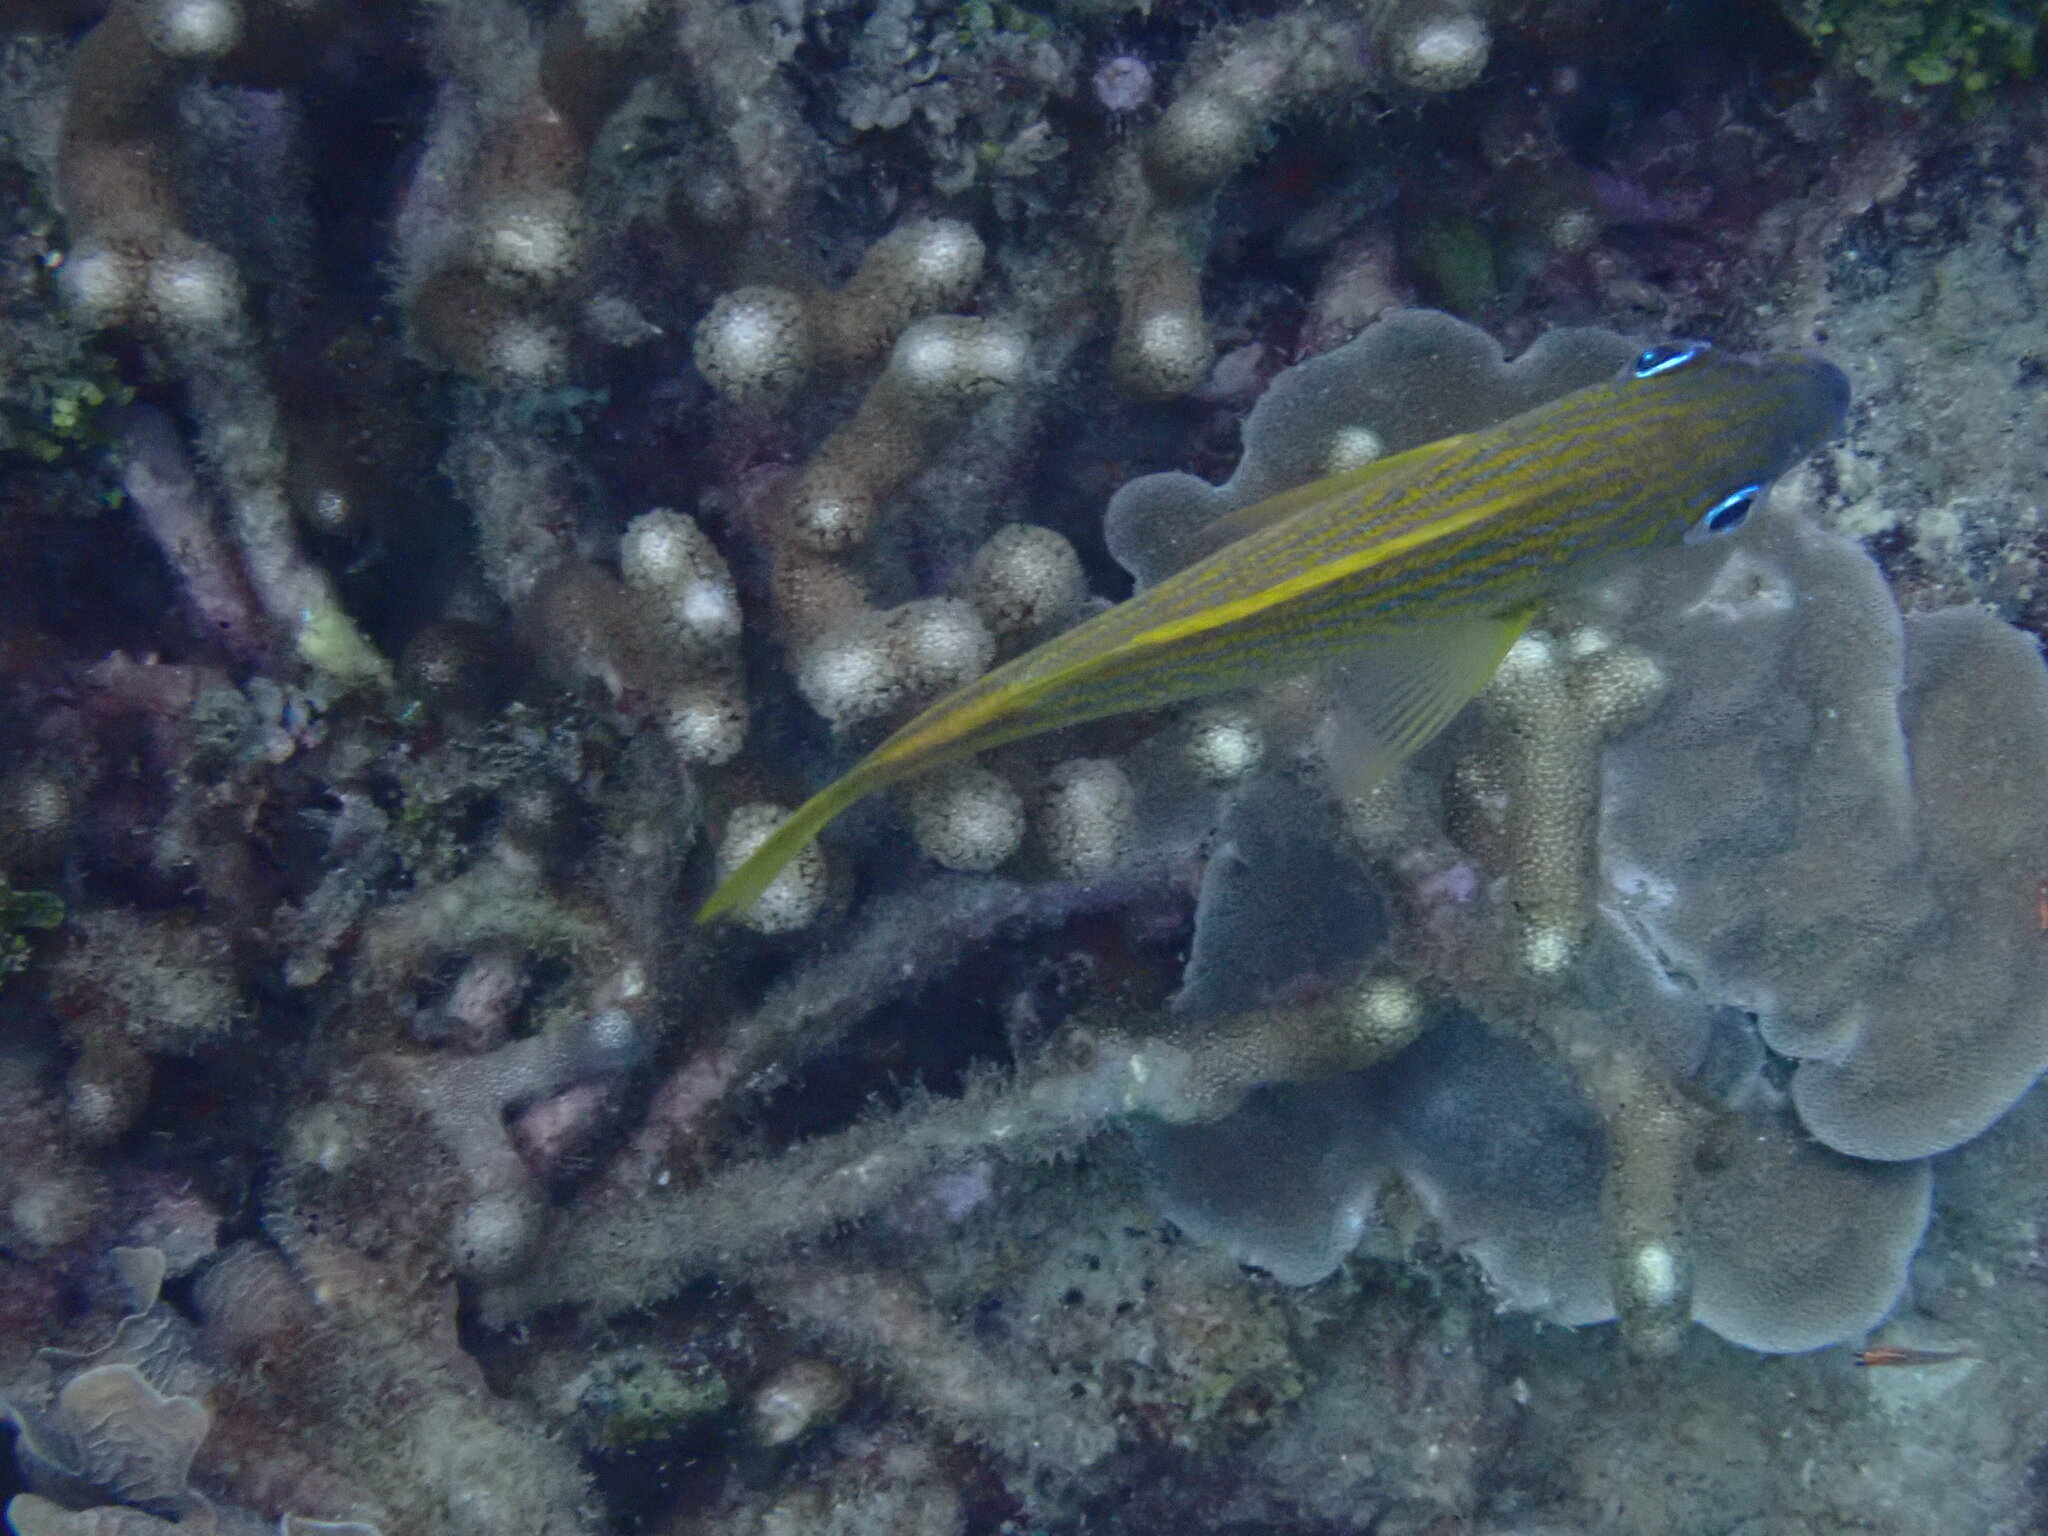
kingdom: Animalia
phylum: Chordata
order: Perciformes
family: Haemulidae
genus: Haemulon
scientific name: Haemulon flavolineatum
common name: French grunt
